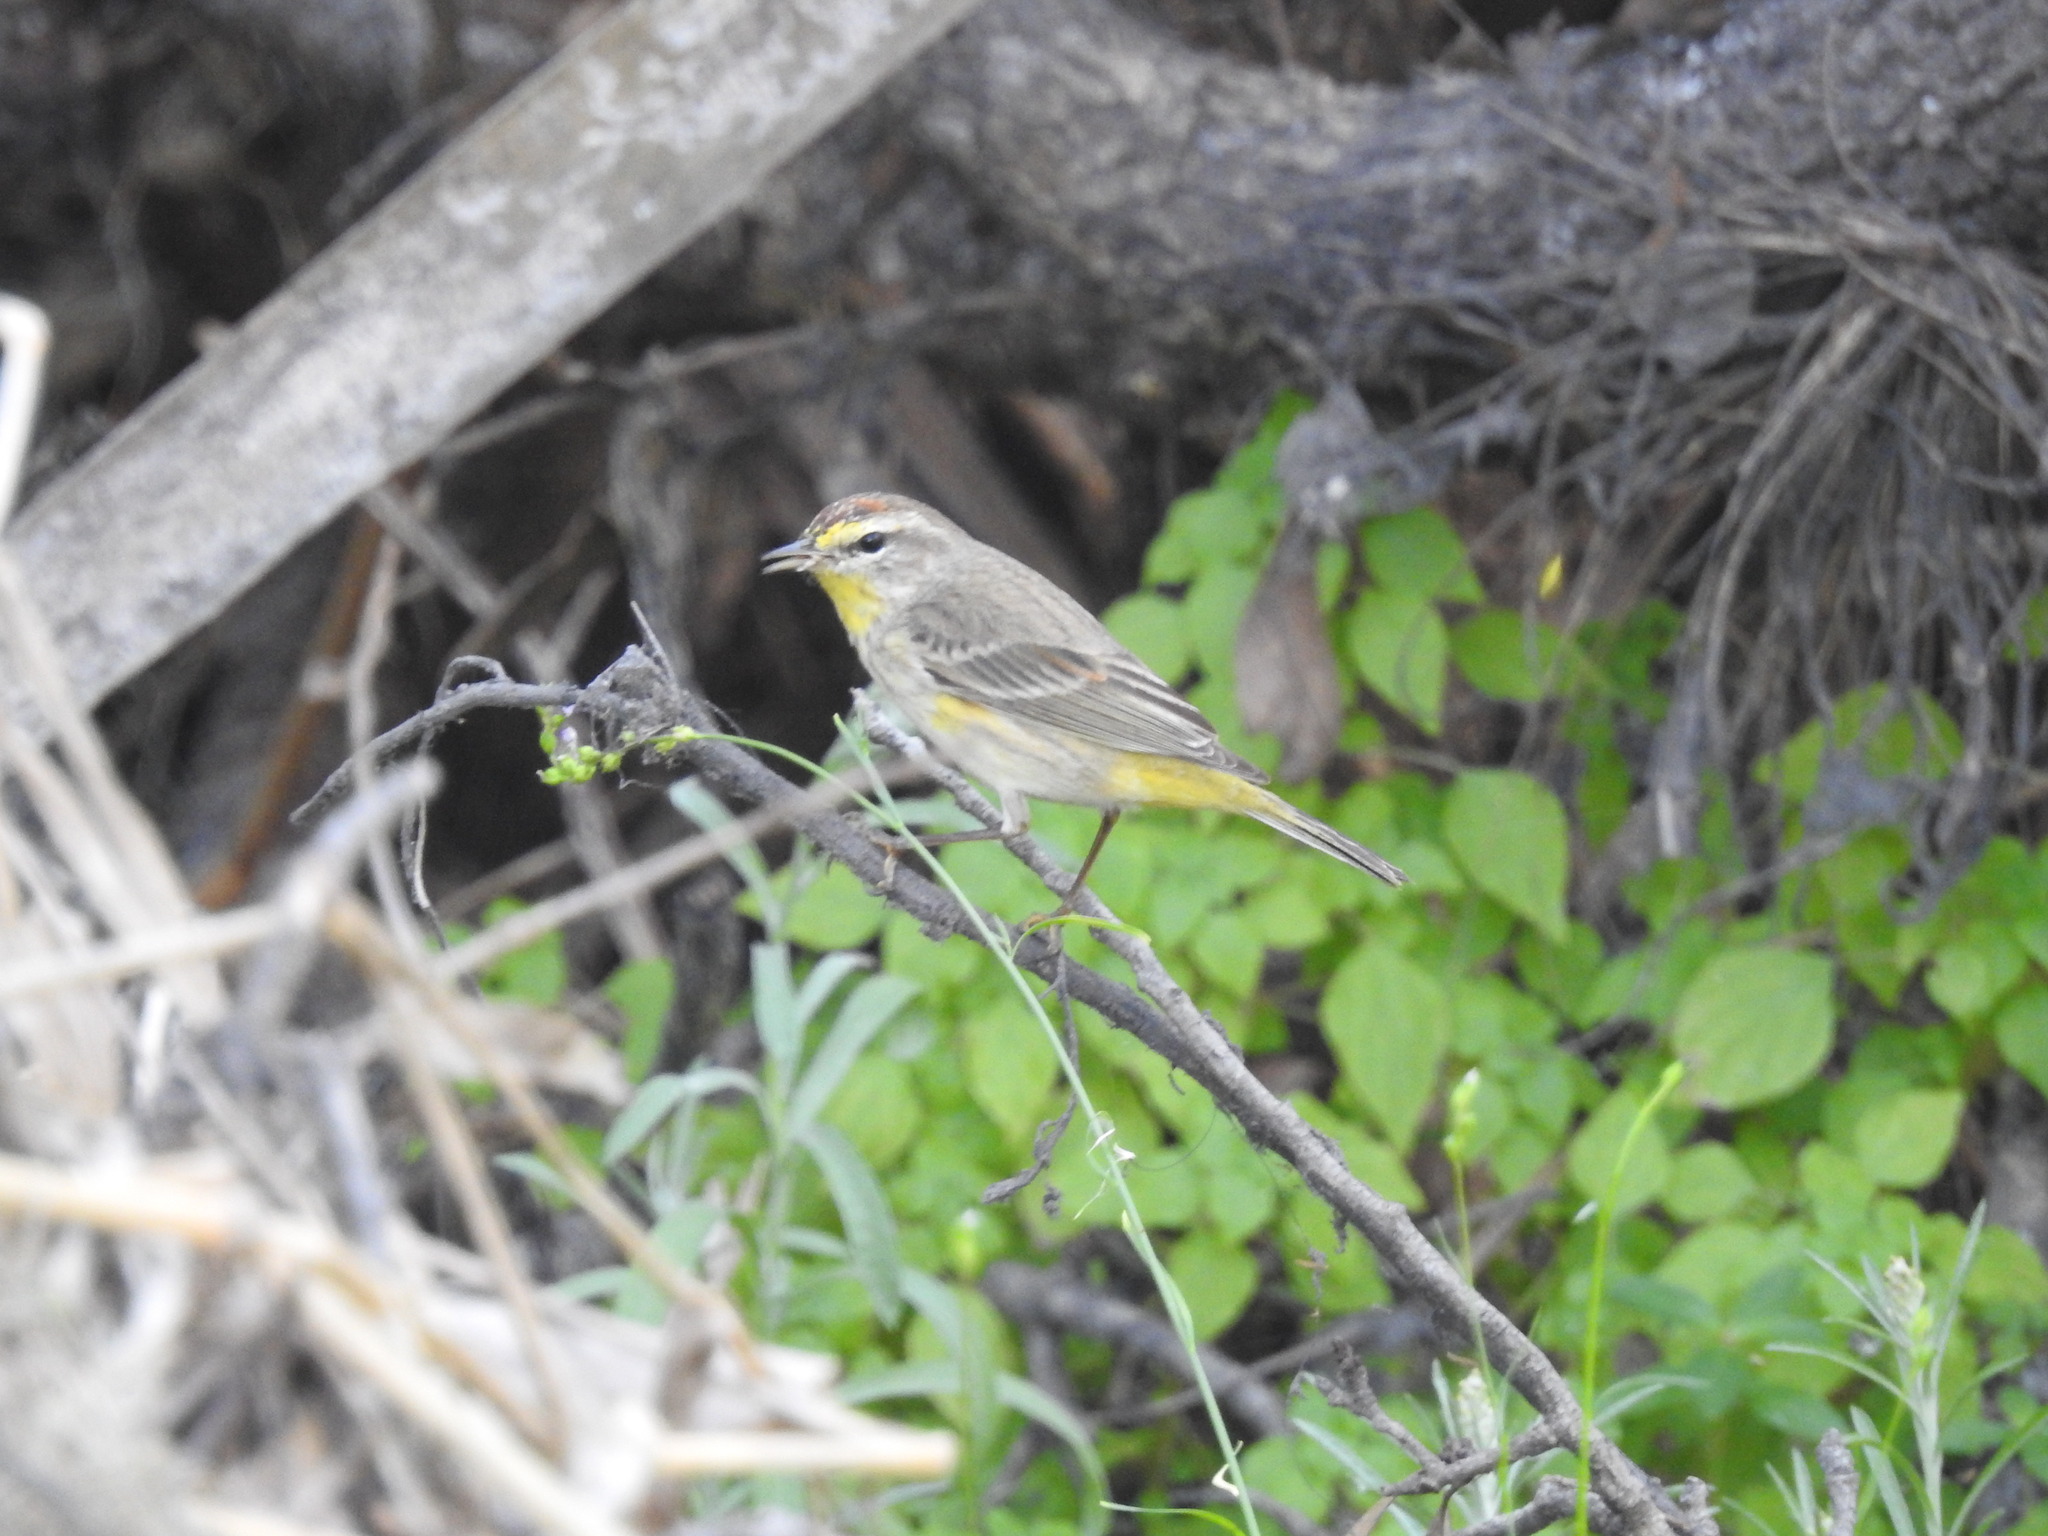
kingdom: Animalia
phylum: Chordata
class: Aves
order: Passeriformes
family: Parulidae
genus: Setophaga
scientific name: Setophaga palmarum
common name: Palm warbler
